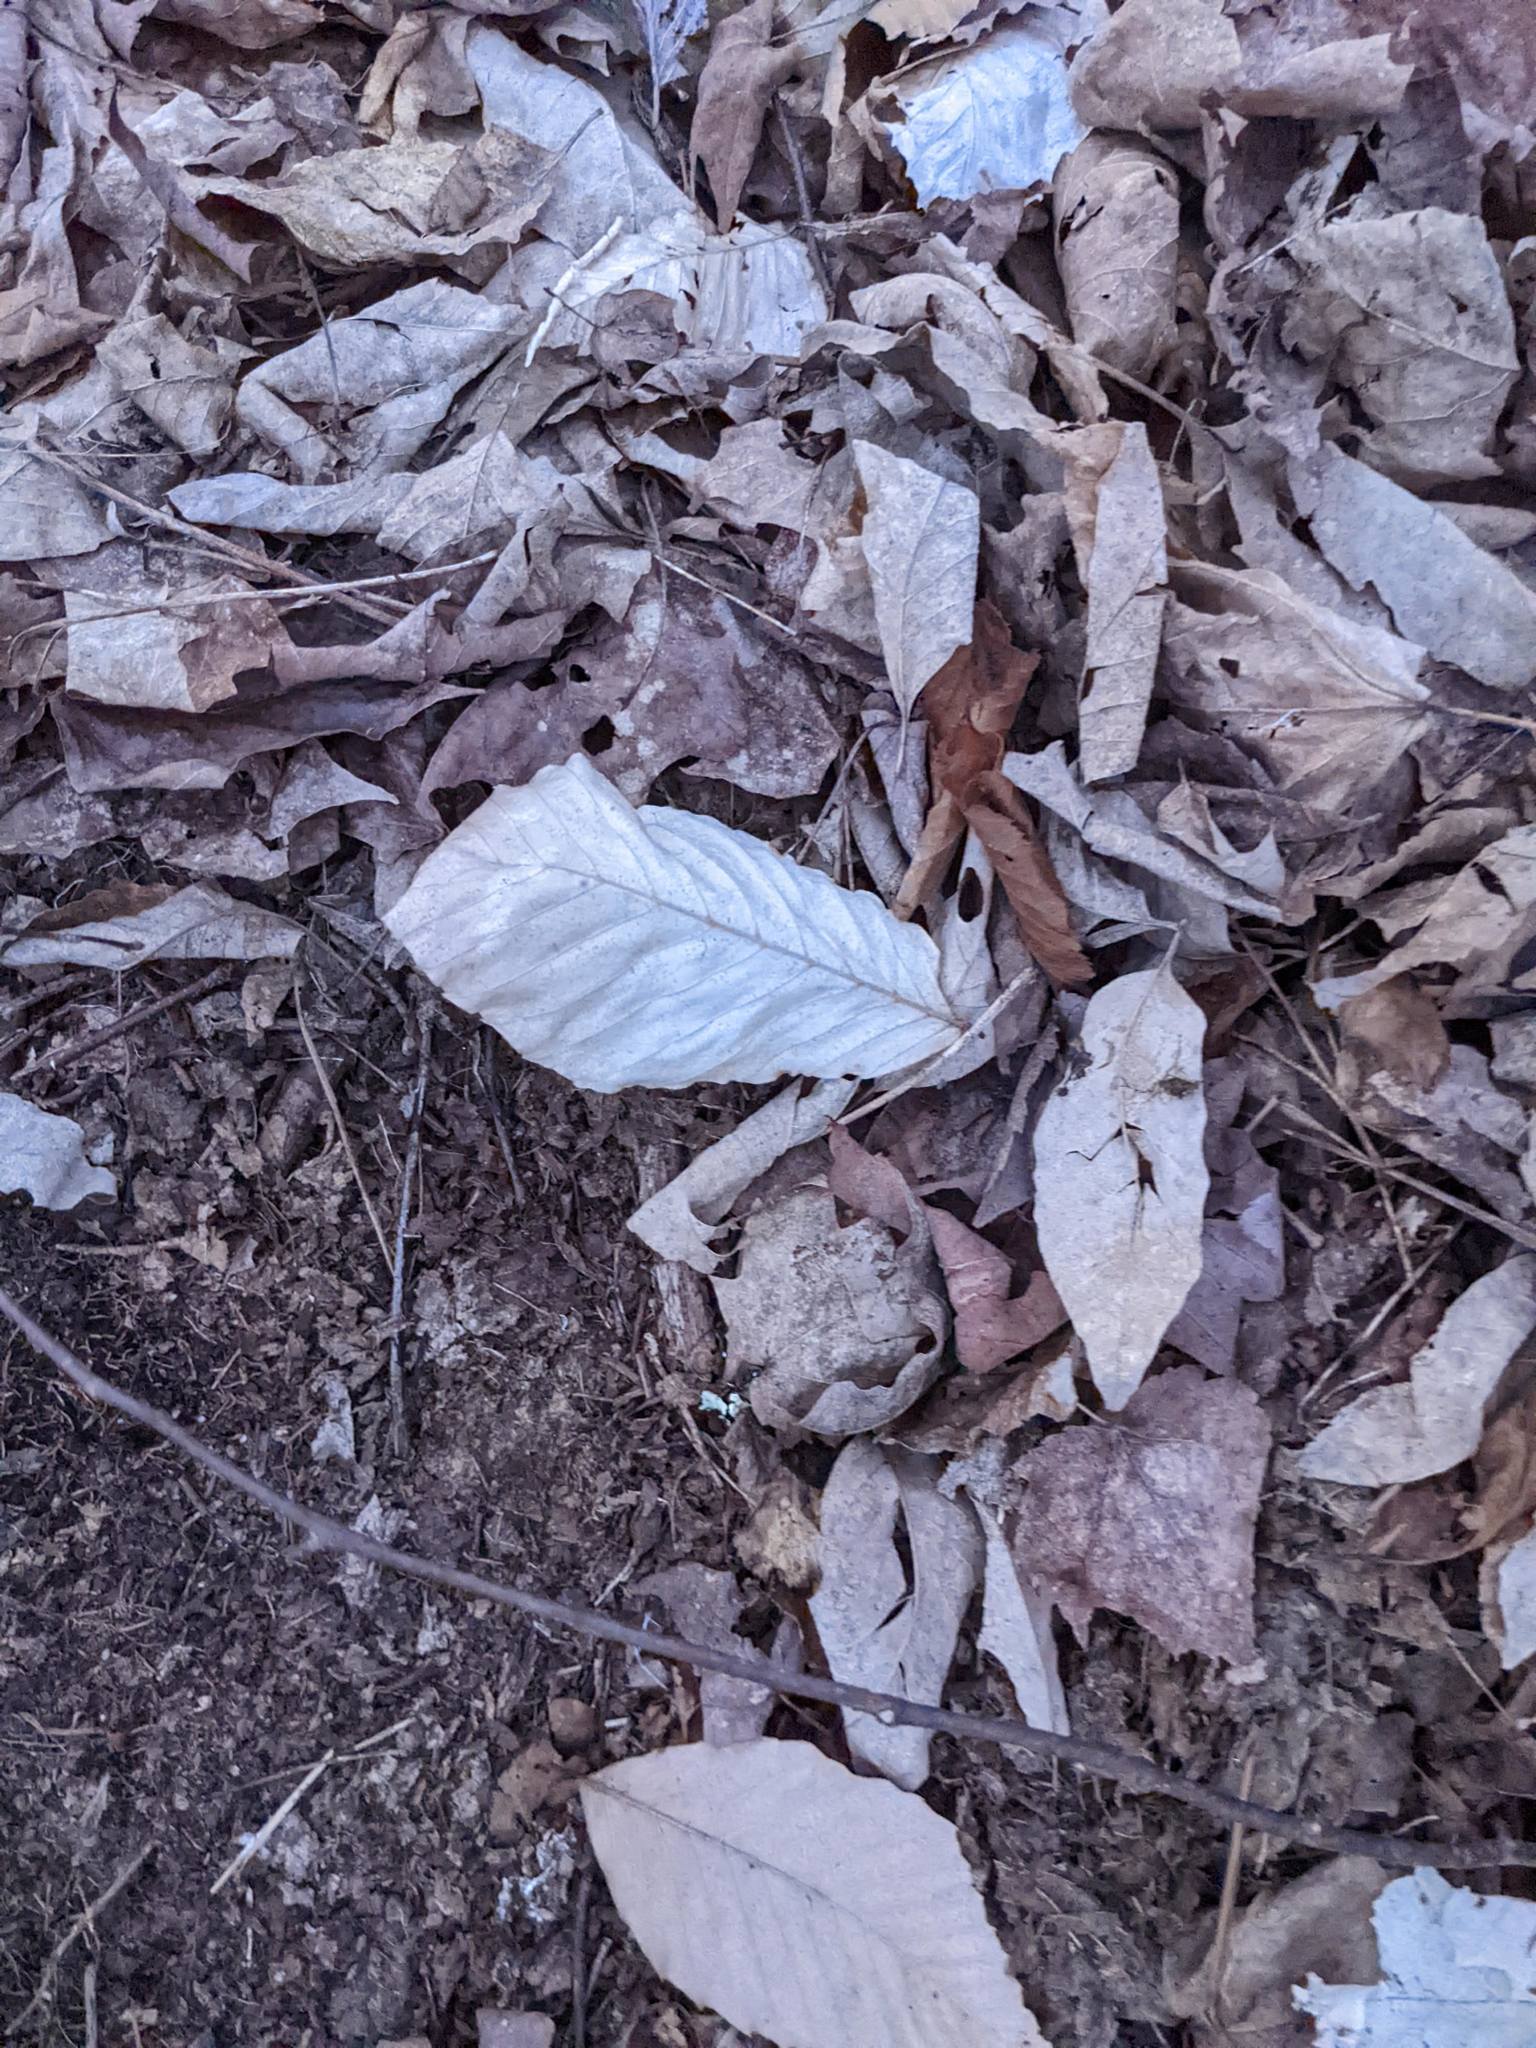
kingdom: Plantae
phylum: Tracheophyta
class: Magnoliopsida
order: Fagales
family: Fagaceae
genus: Fagus
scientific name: Fagus grandifolia
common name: American beech
